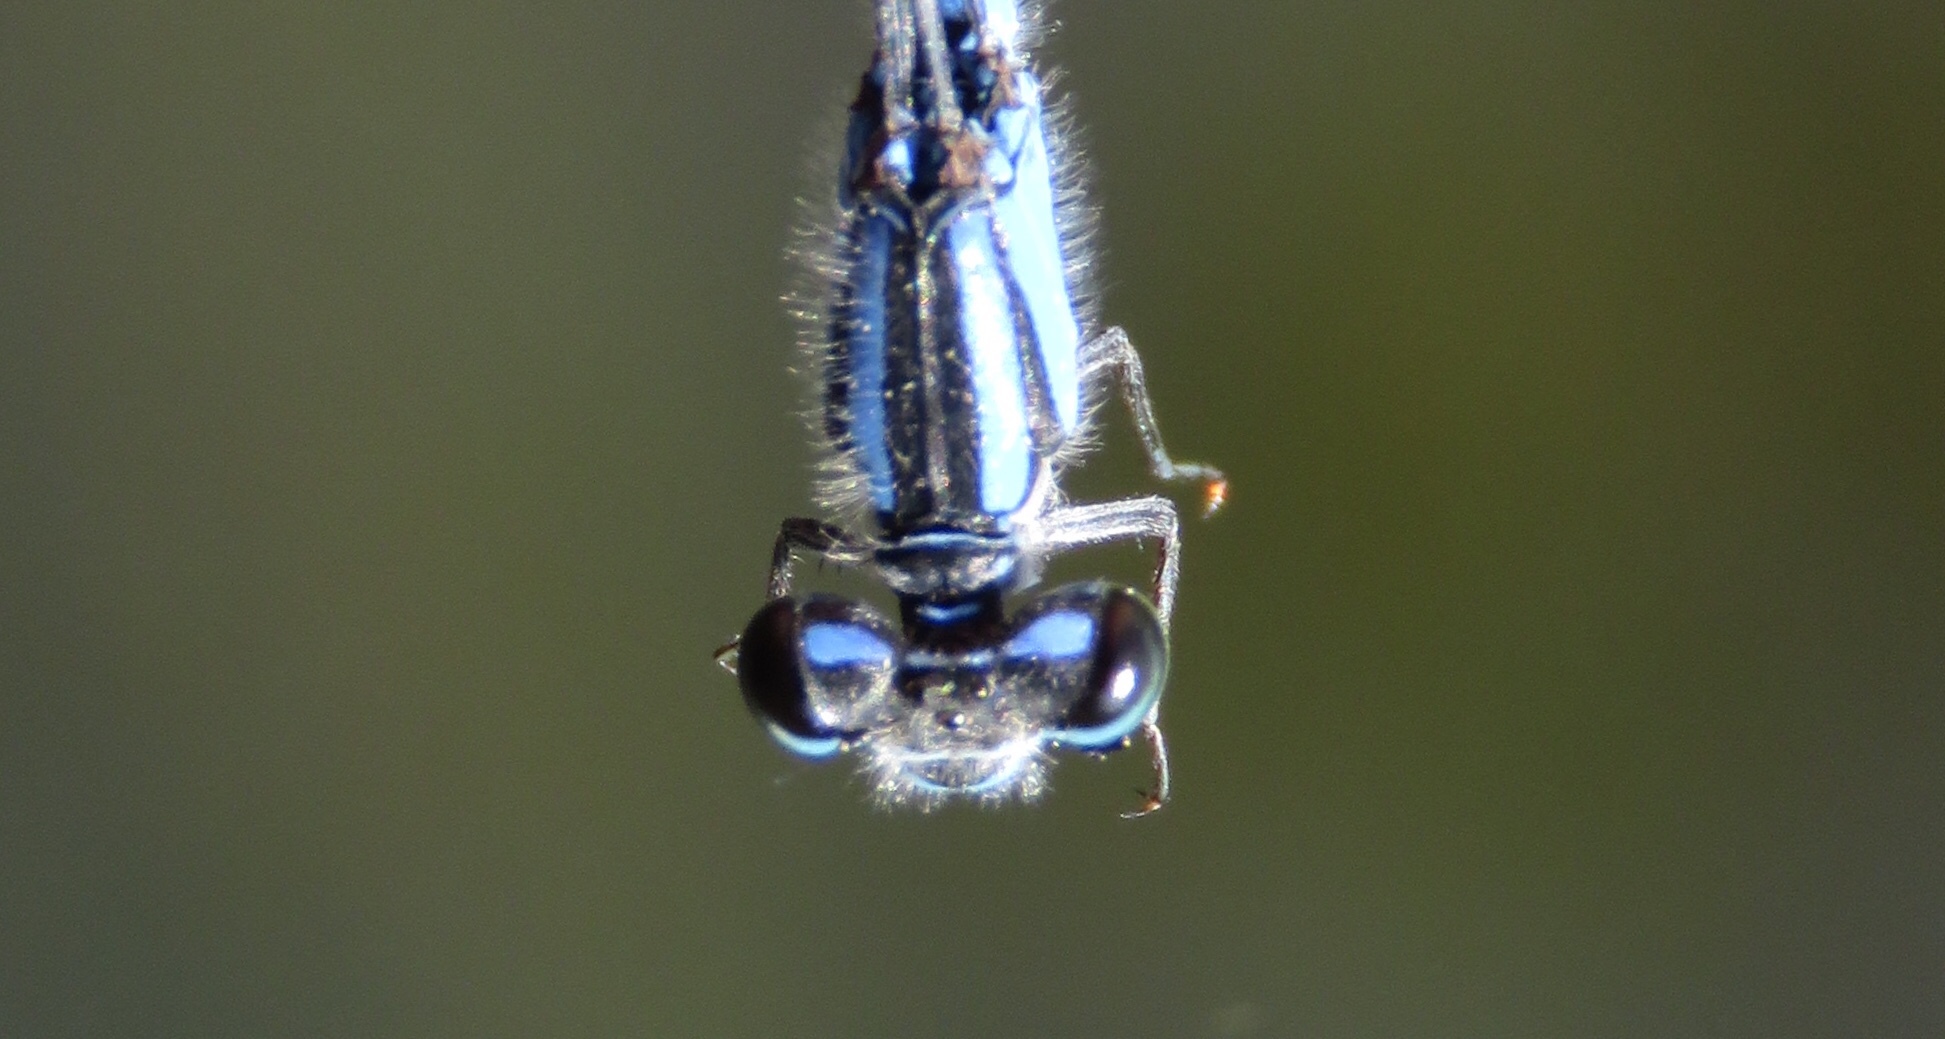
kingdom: Animalia
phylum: Arthropoda
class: Insecta
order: Odonata
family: Coenagrionidae
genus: Enallagma
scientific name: Enallagma carunculatum
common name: Tule bluet
